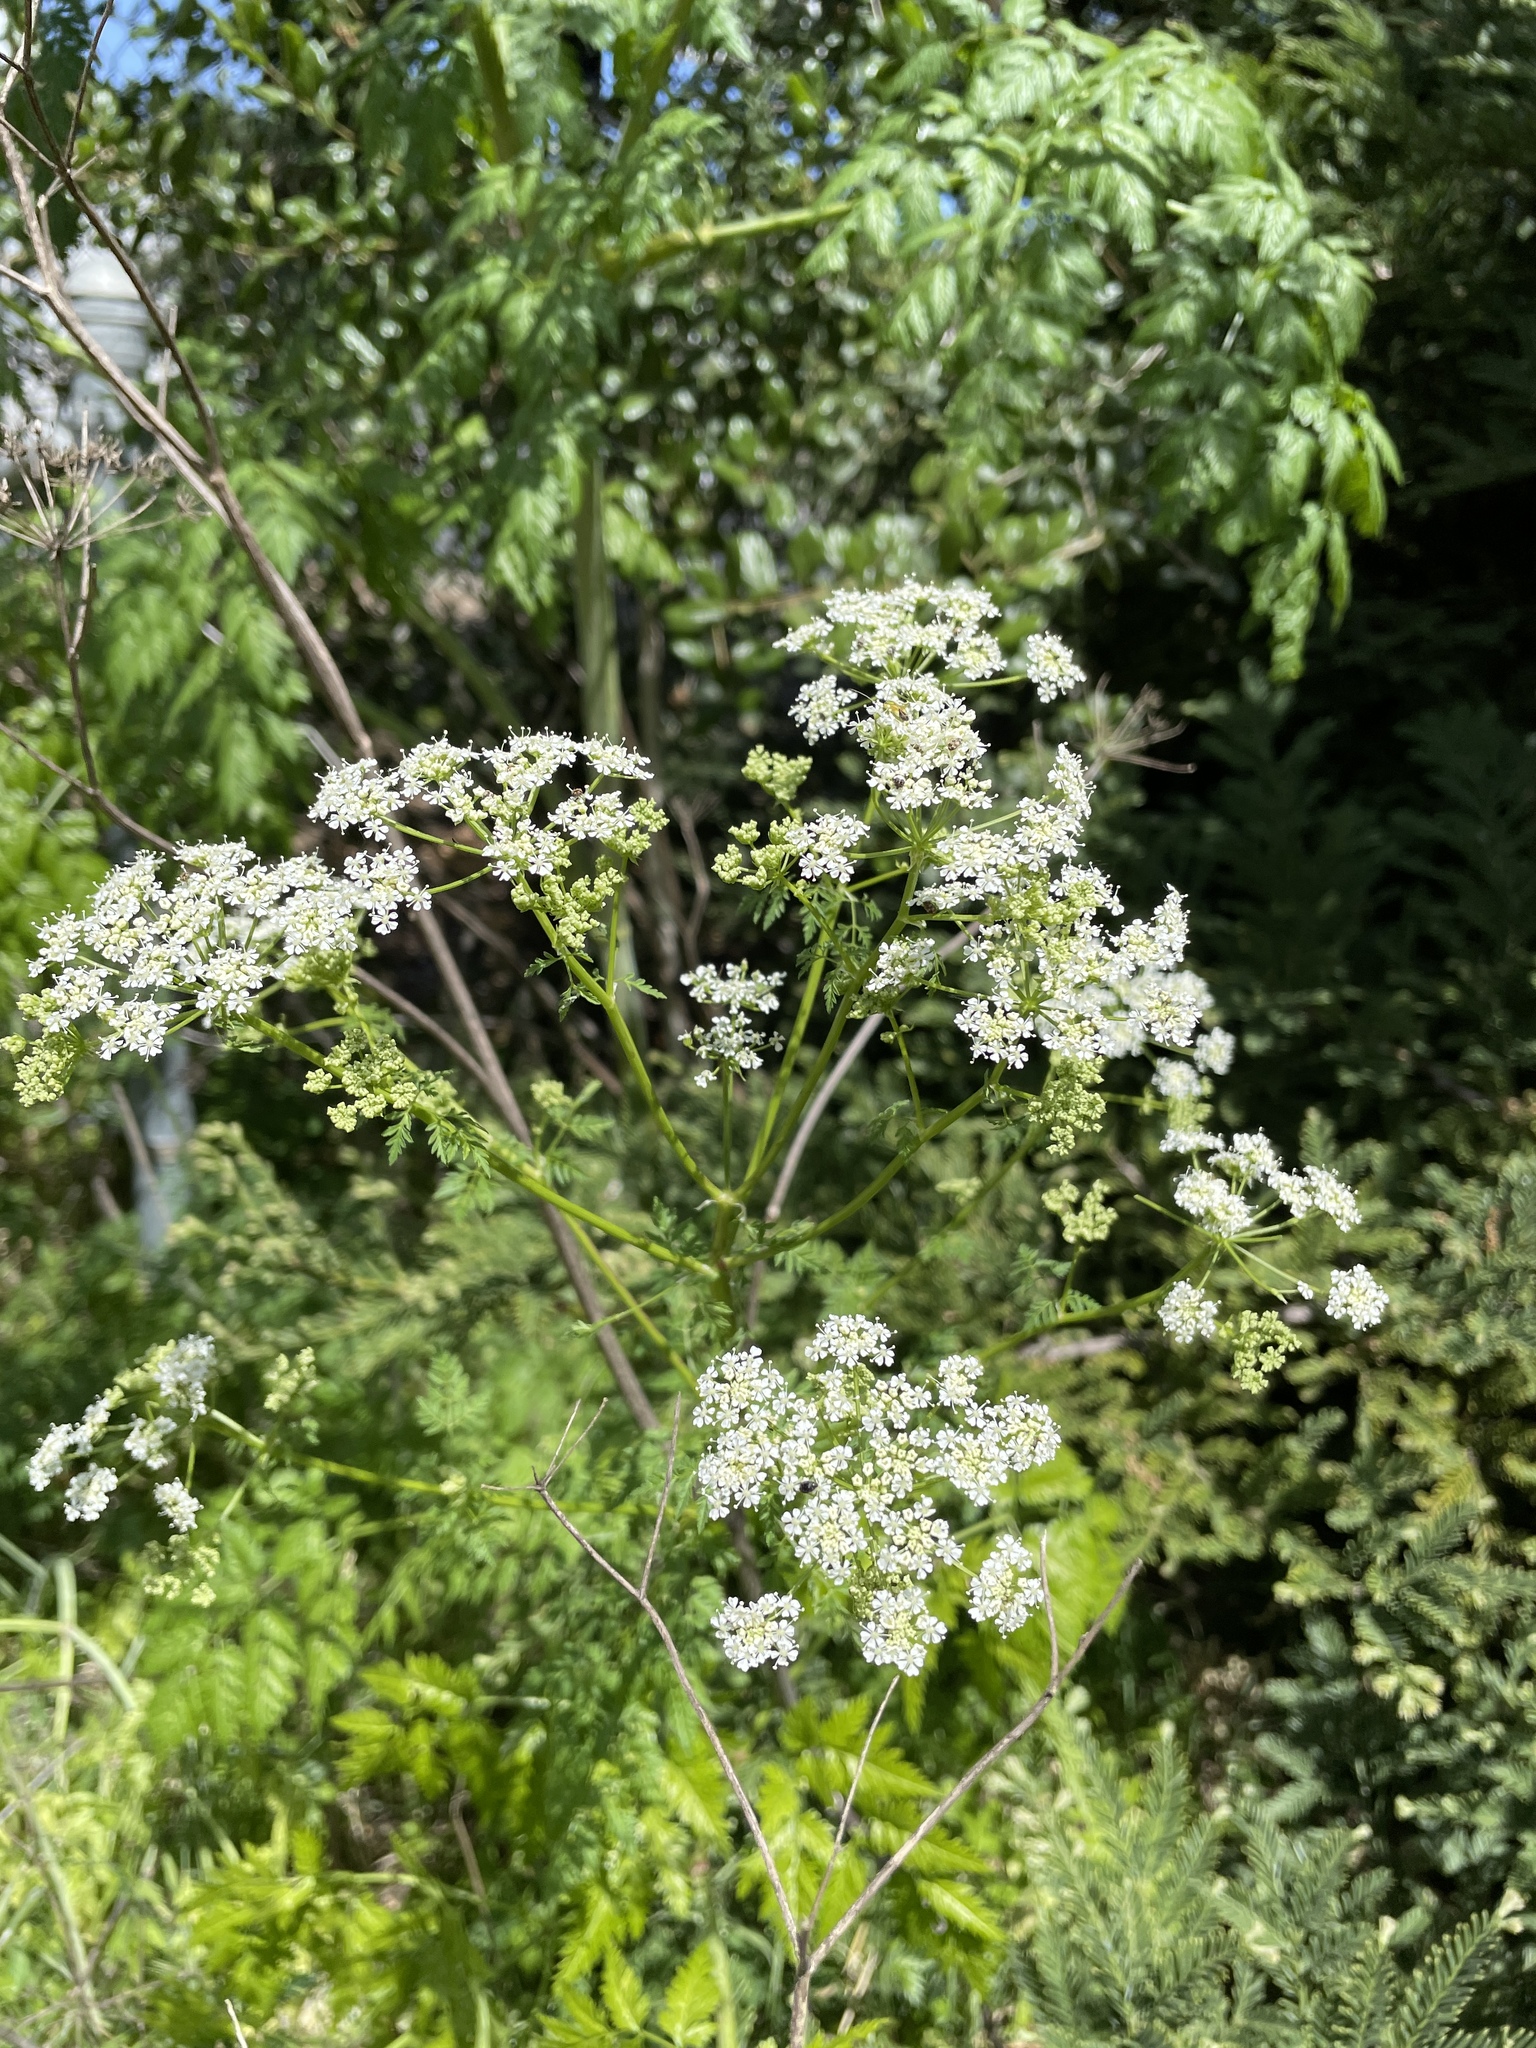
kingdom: Plantae
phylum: Tracheophyta
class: Magnoliopsida
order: Apiales
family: Apiaceae
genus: Conium
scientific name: Conium maculatum
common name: Hemlock
